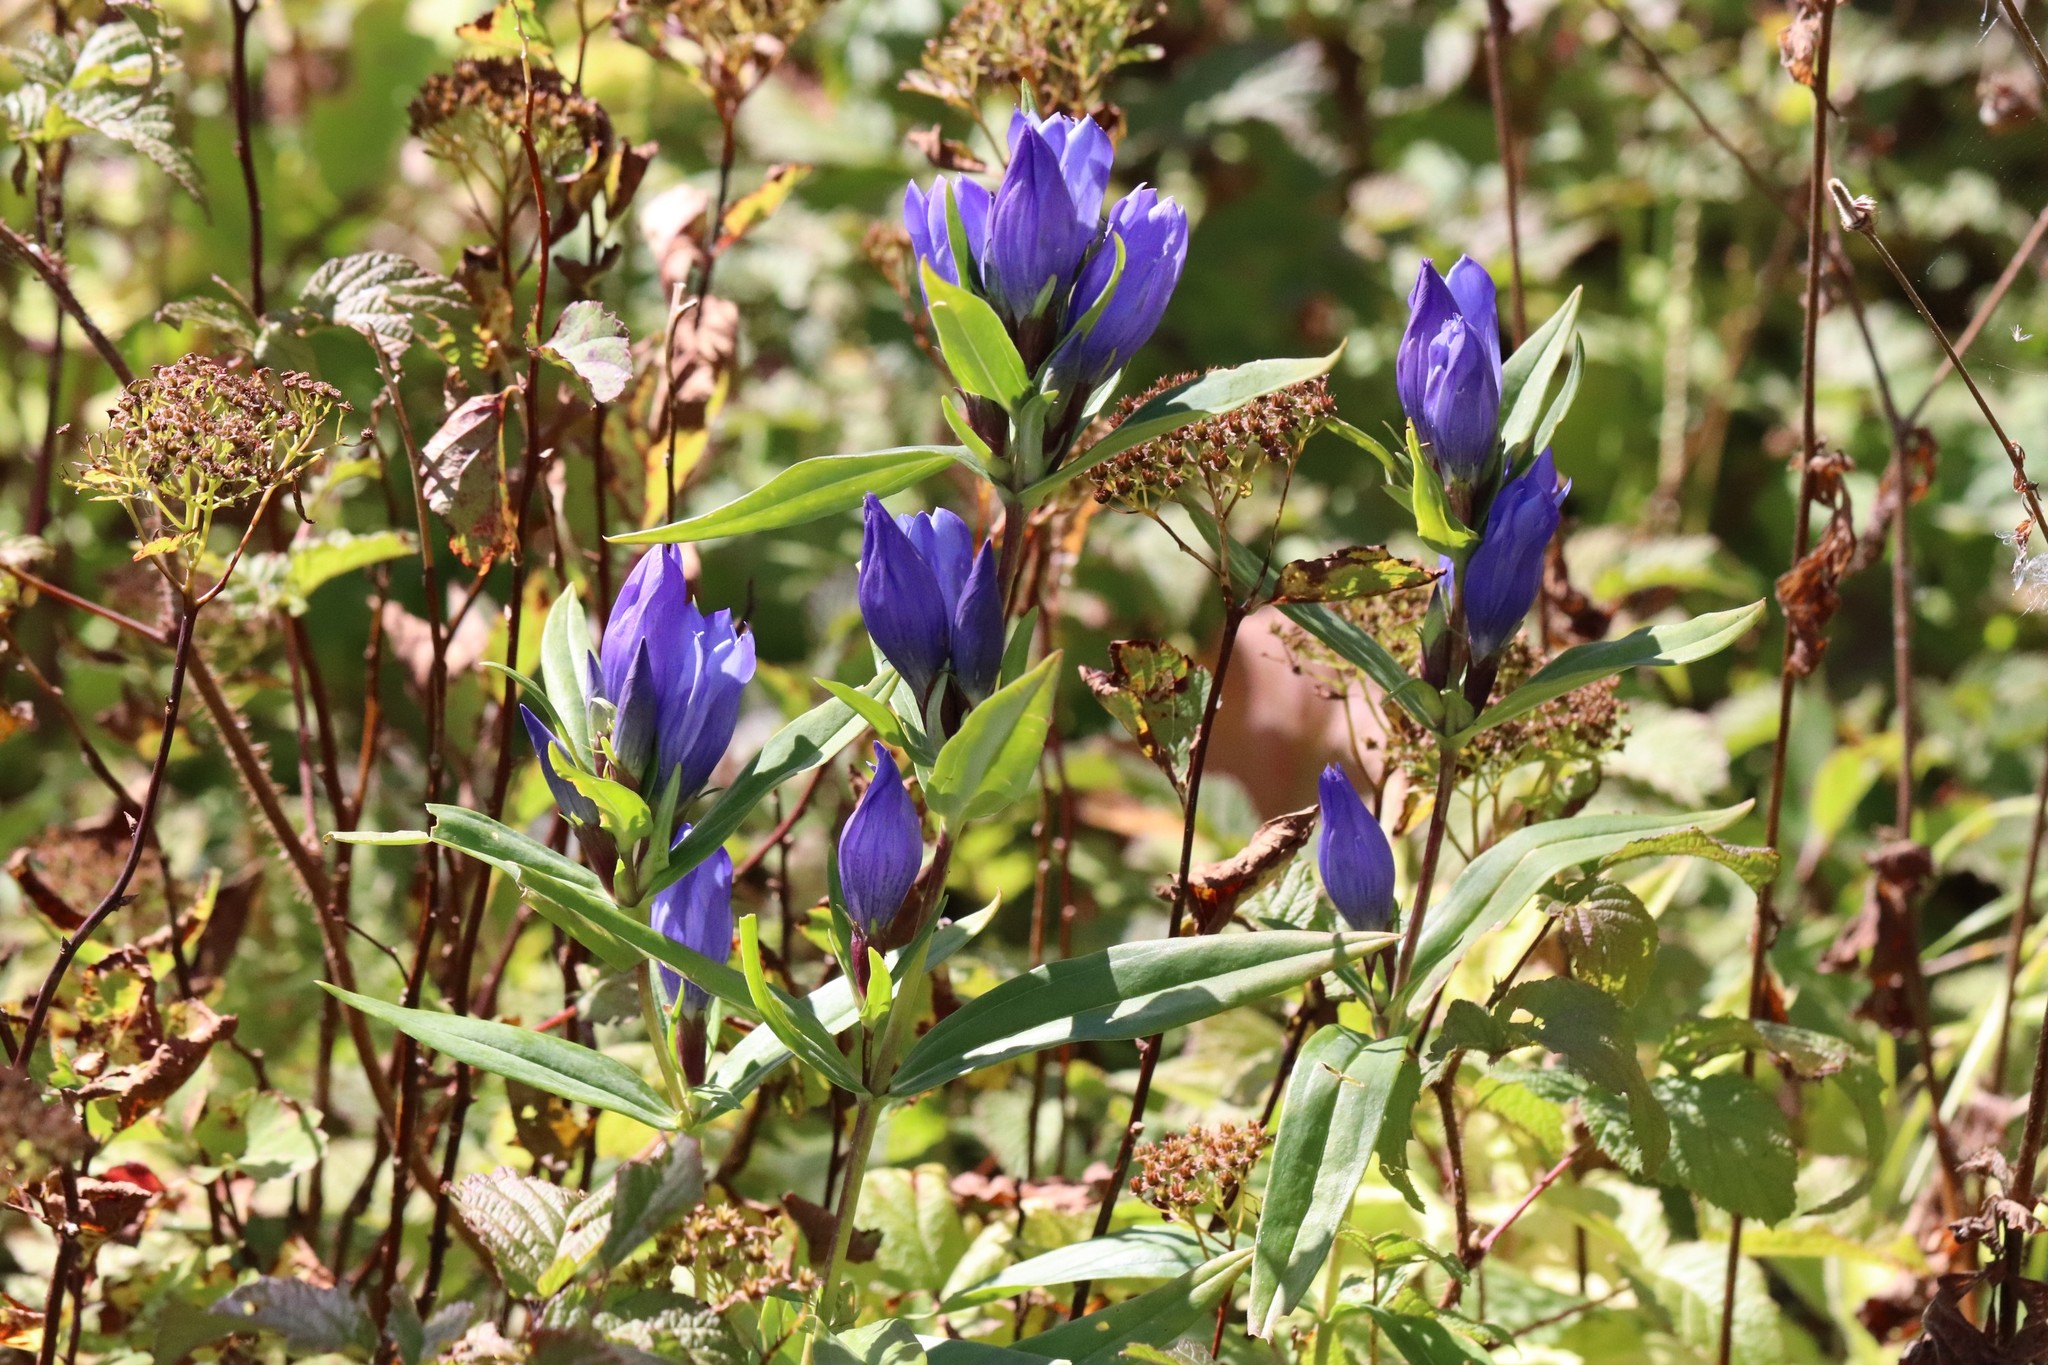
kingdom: Plantae
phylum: Tracheophyta
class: Magnoliopsida
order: Gentianales
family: Gentianaceae
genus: Gentiana
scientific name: Gentiana triflora
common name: Three-flower gentian
